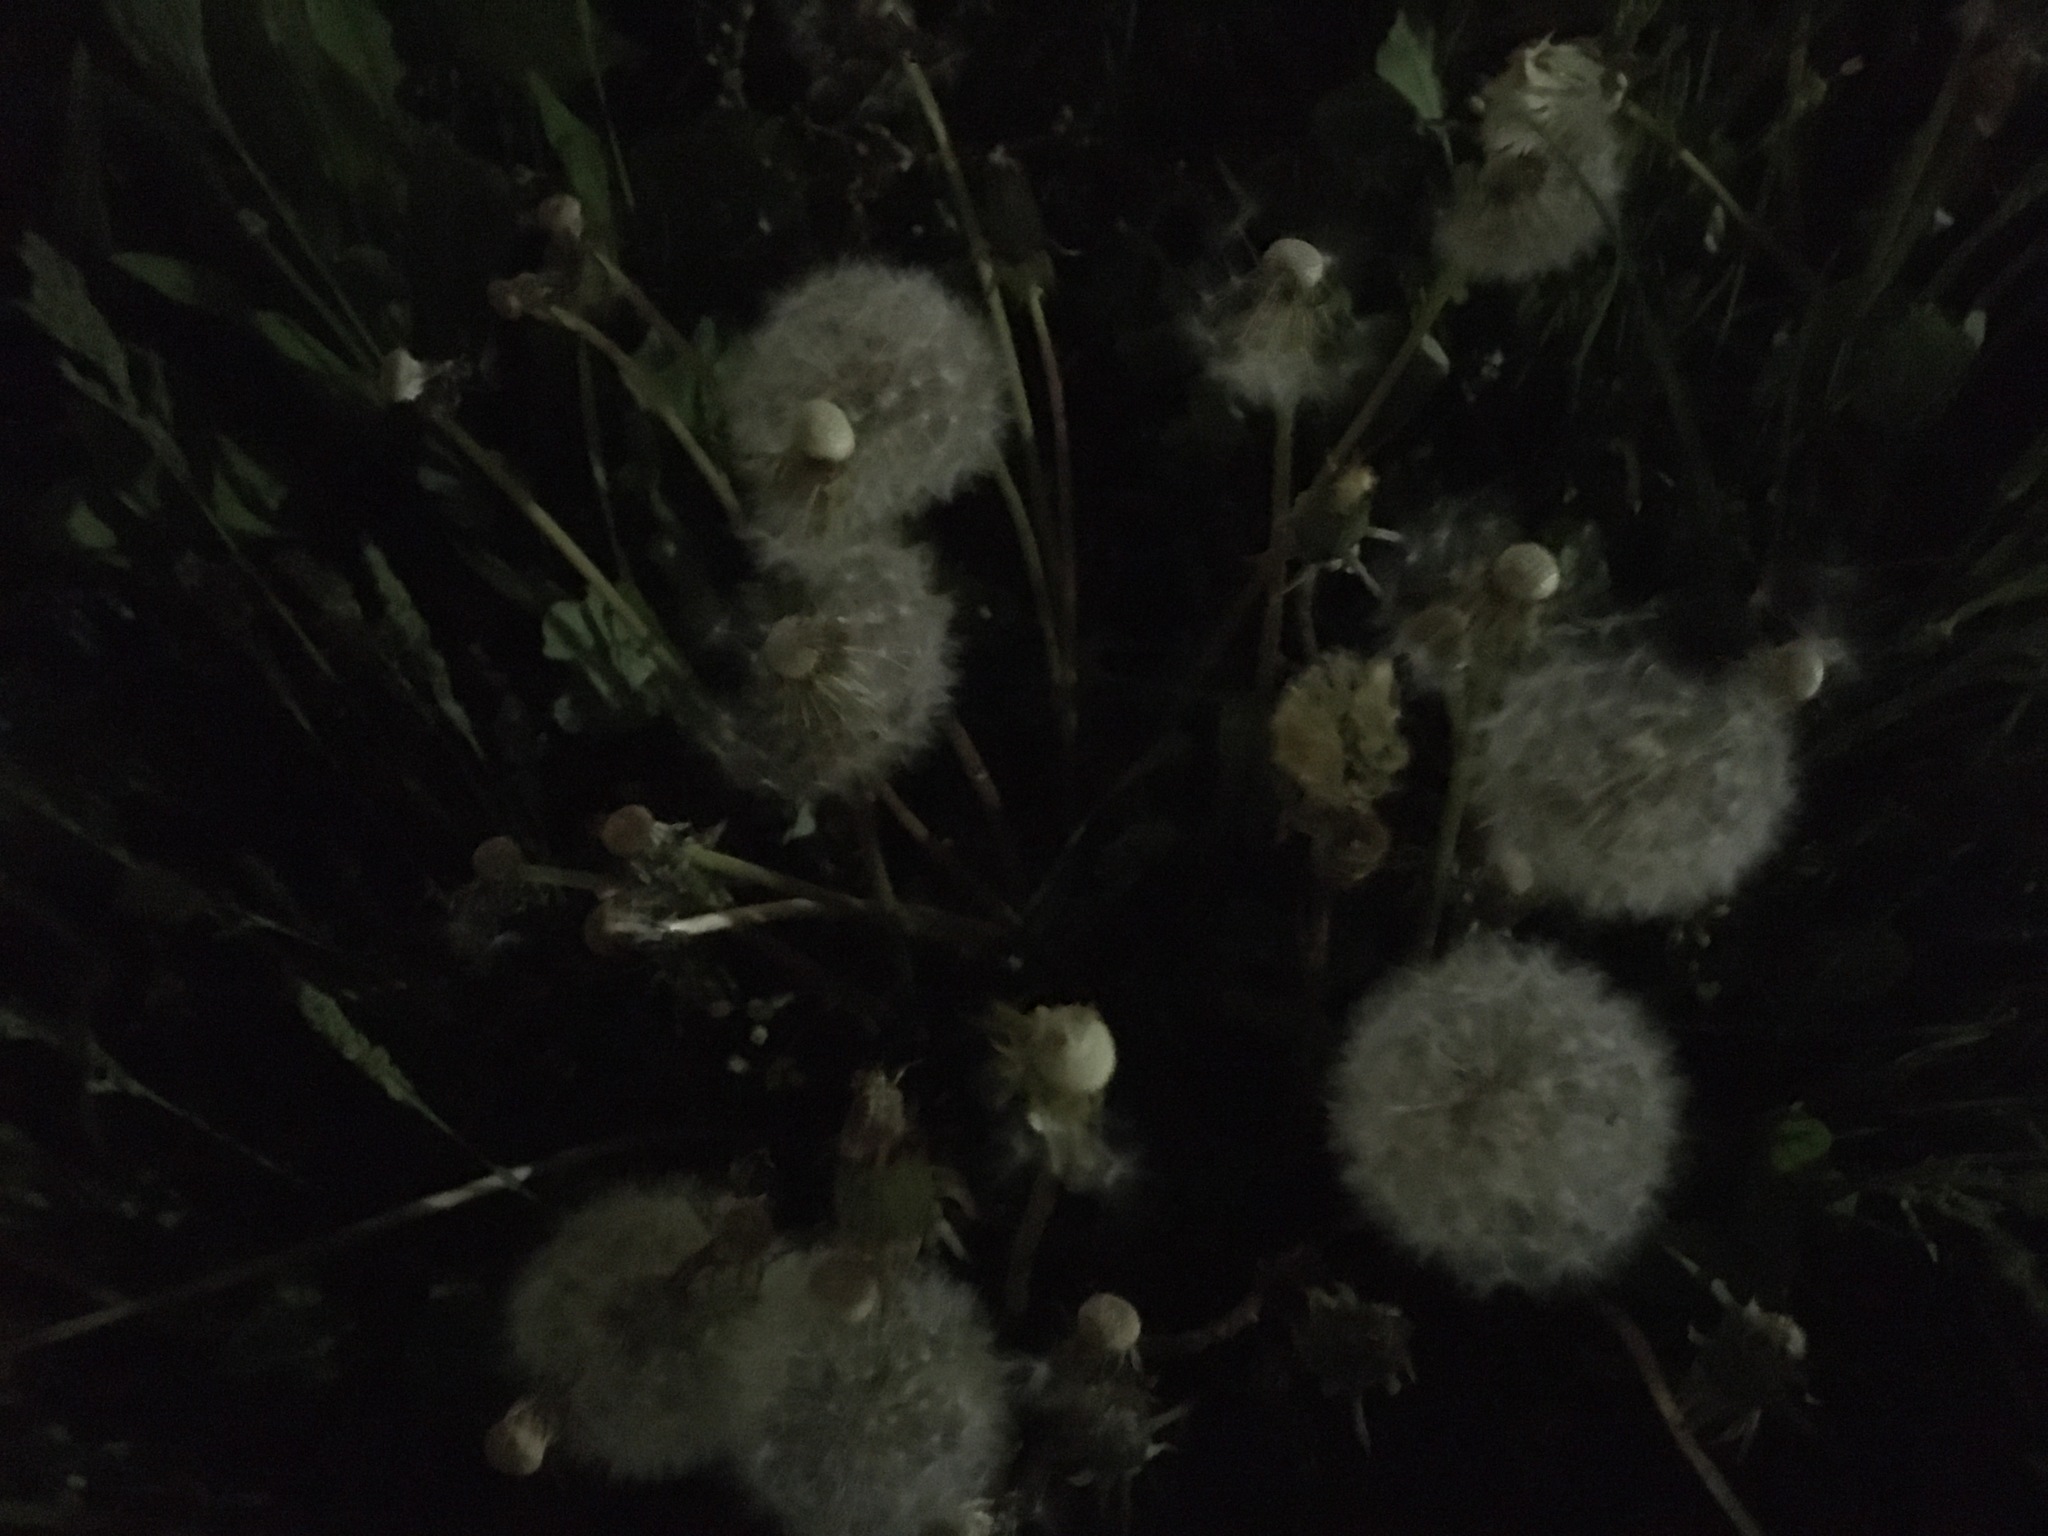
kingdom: Plantae
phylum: Tracheophyta
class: Magnoliopsida
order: Asterales
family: Asteraceae
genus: Taraxacum
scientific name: Taraxacum officinale
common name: Common dandelion
